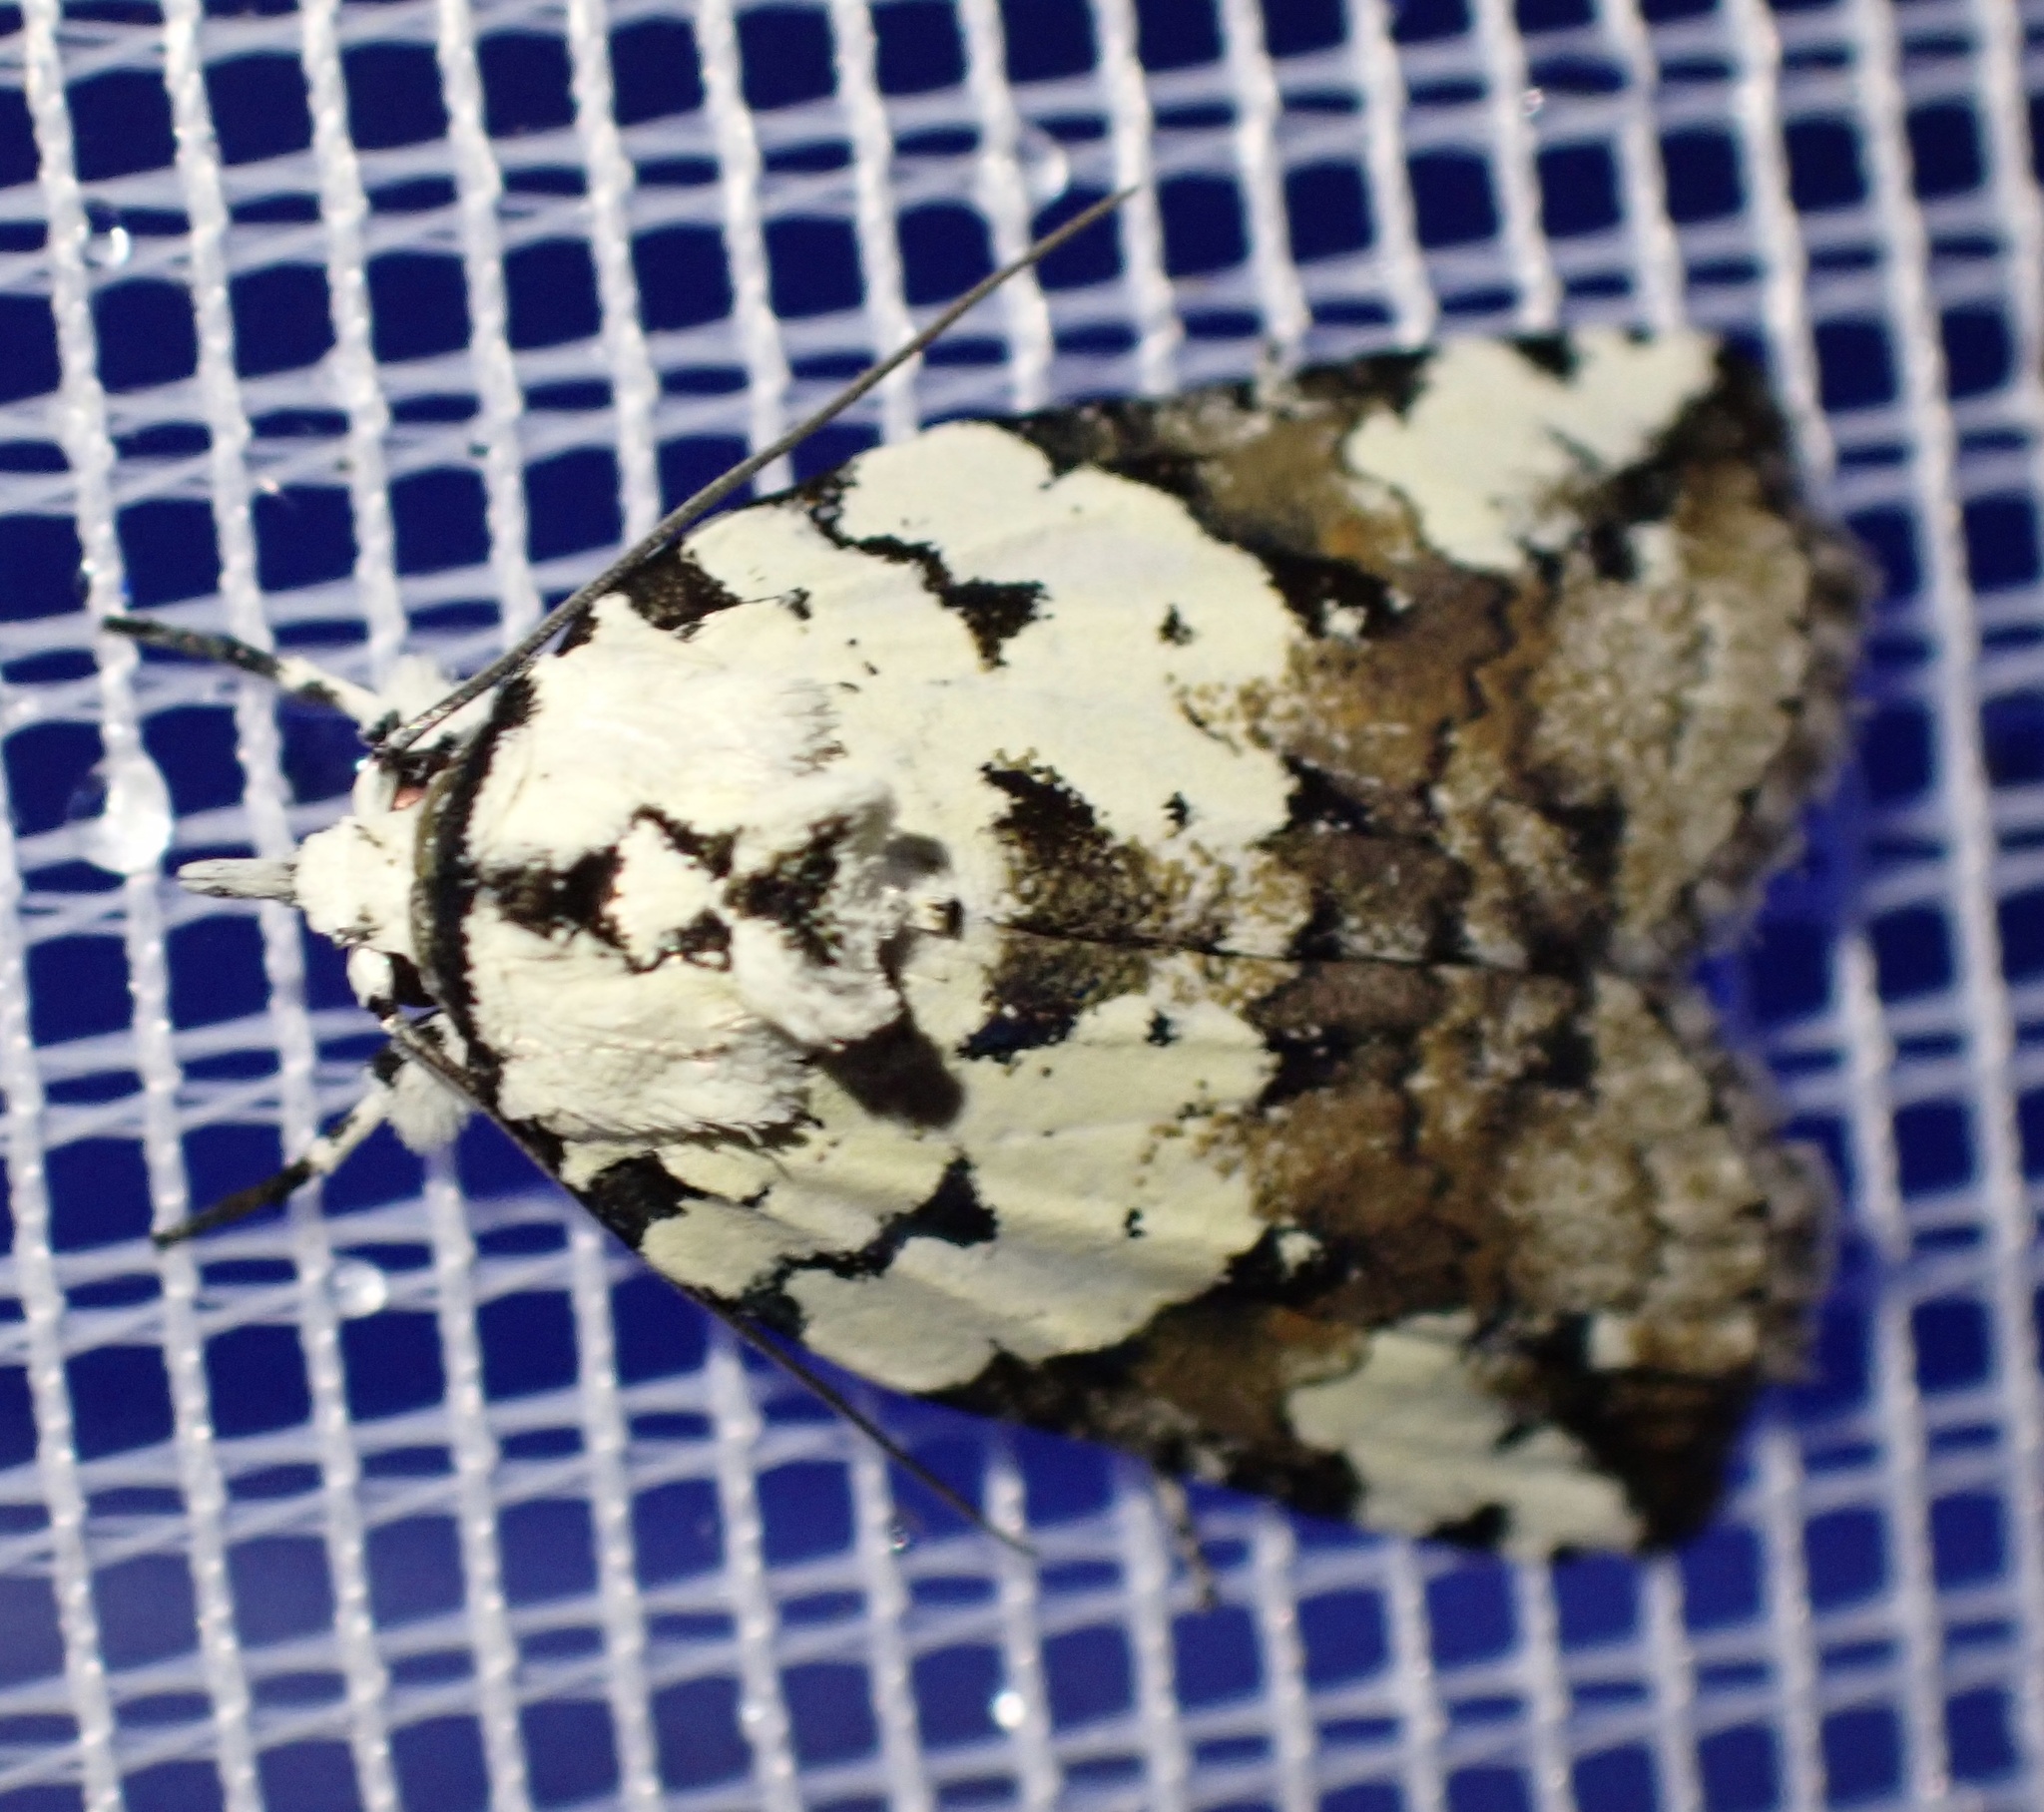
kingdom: Animalia
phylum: Arthropoda
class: Insecta
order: Lepidoptera
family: Nolidae
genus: Nycteola
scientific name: Nycteola kebea
